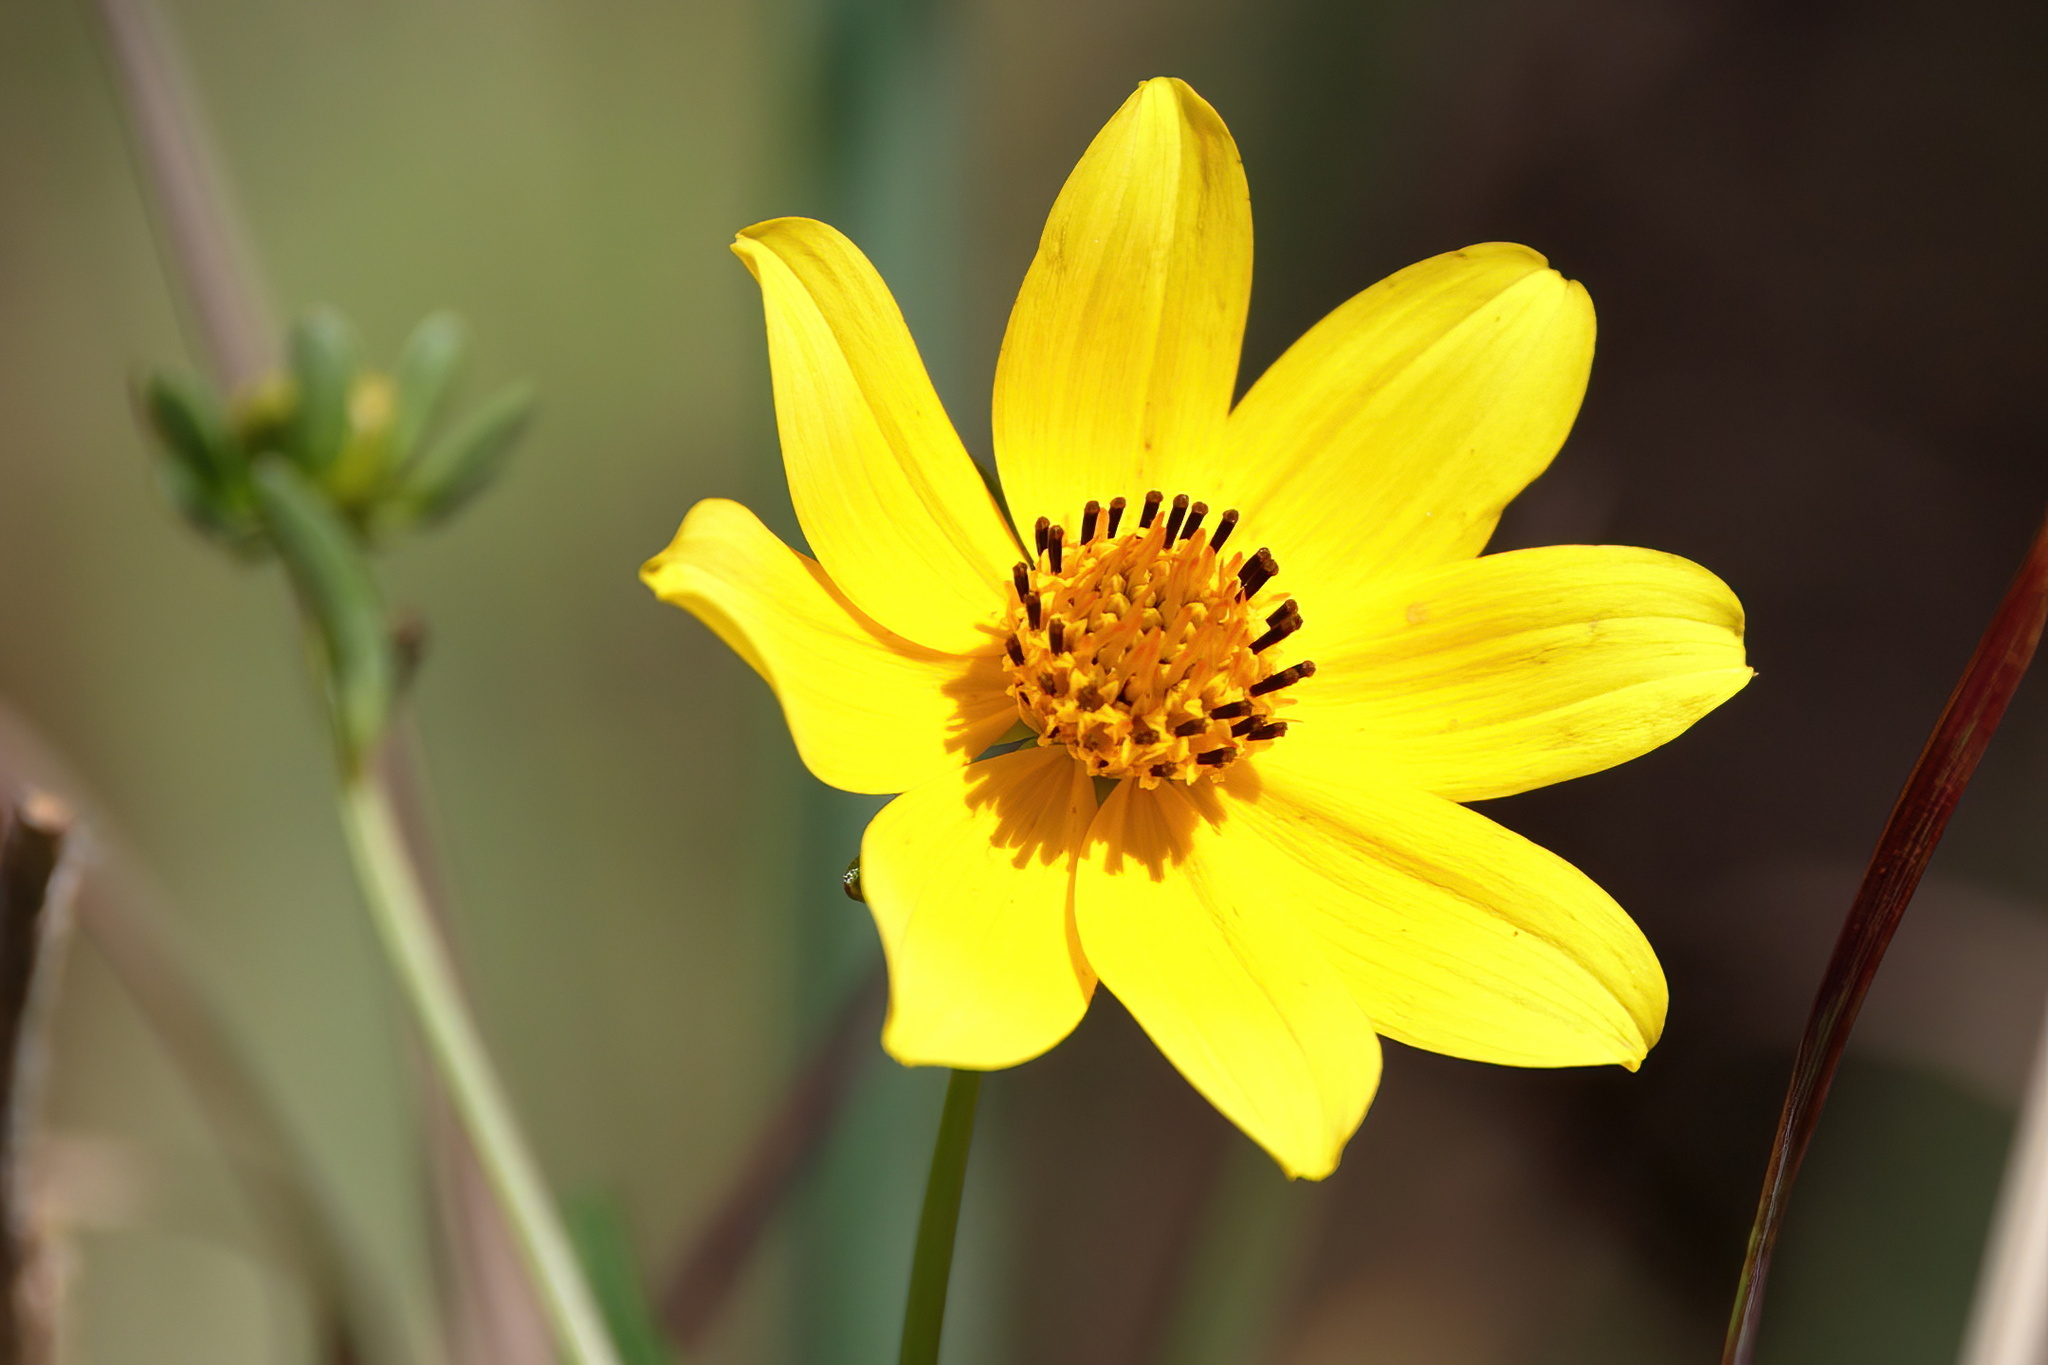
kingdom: Plantae
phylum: Tracheophyta
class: Magnoliopsida
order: Asterales
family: Asteraceae
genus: Bidens
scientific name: Bidens mitis
